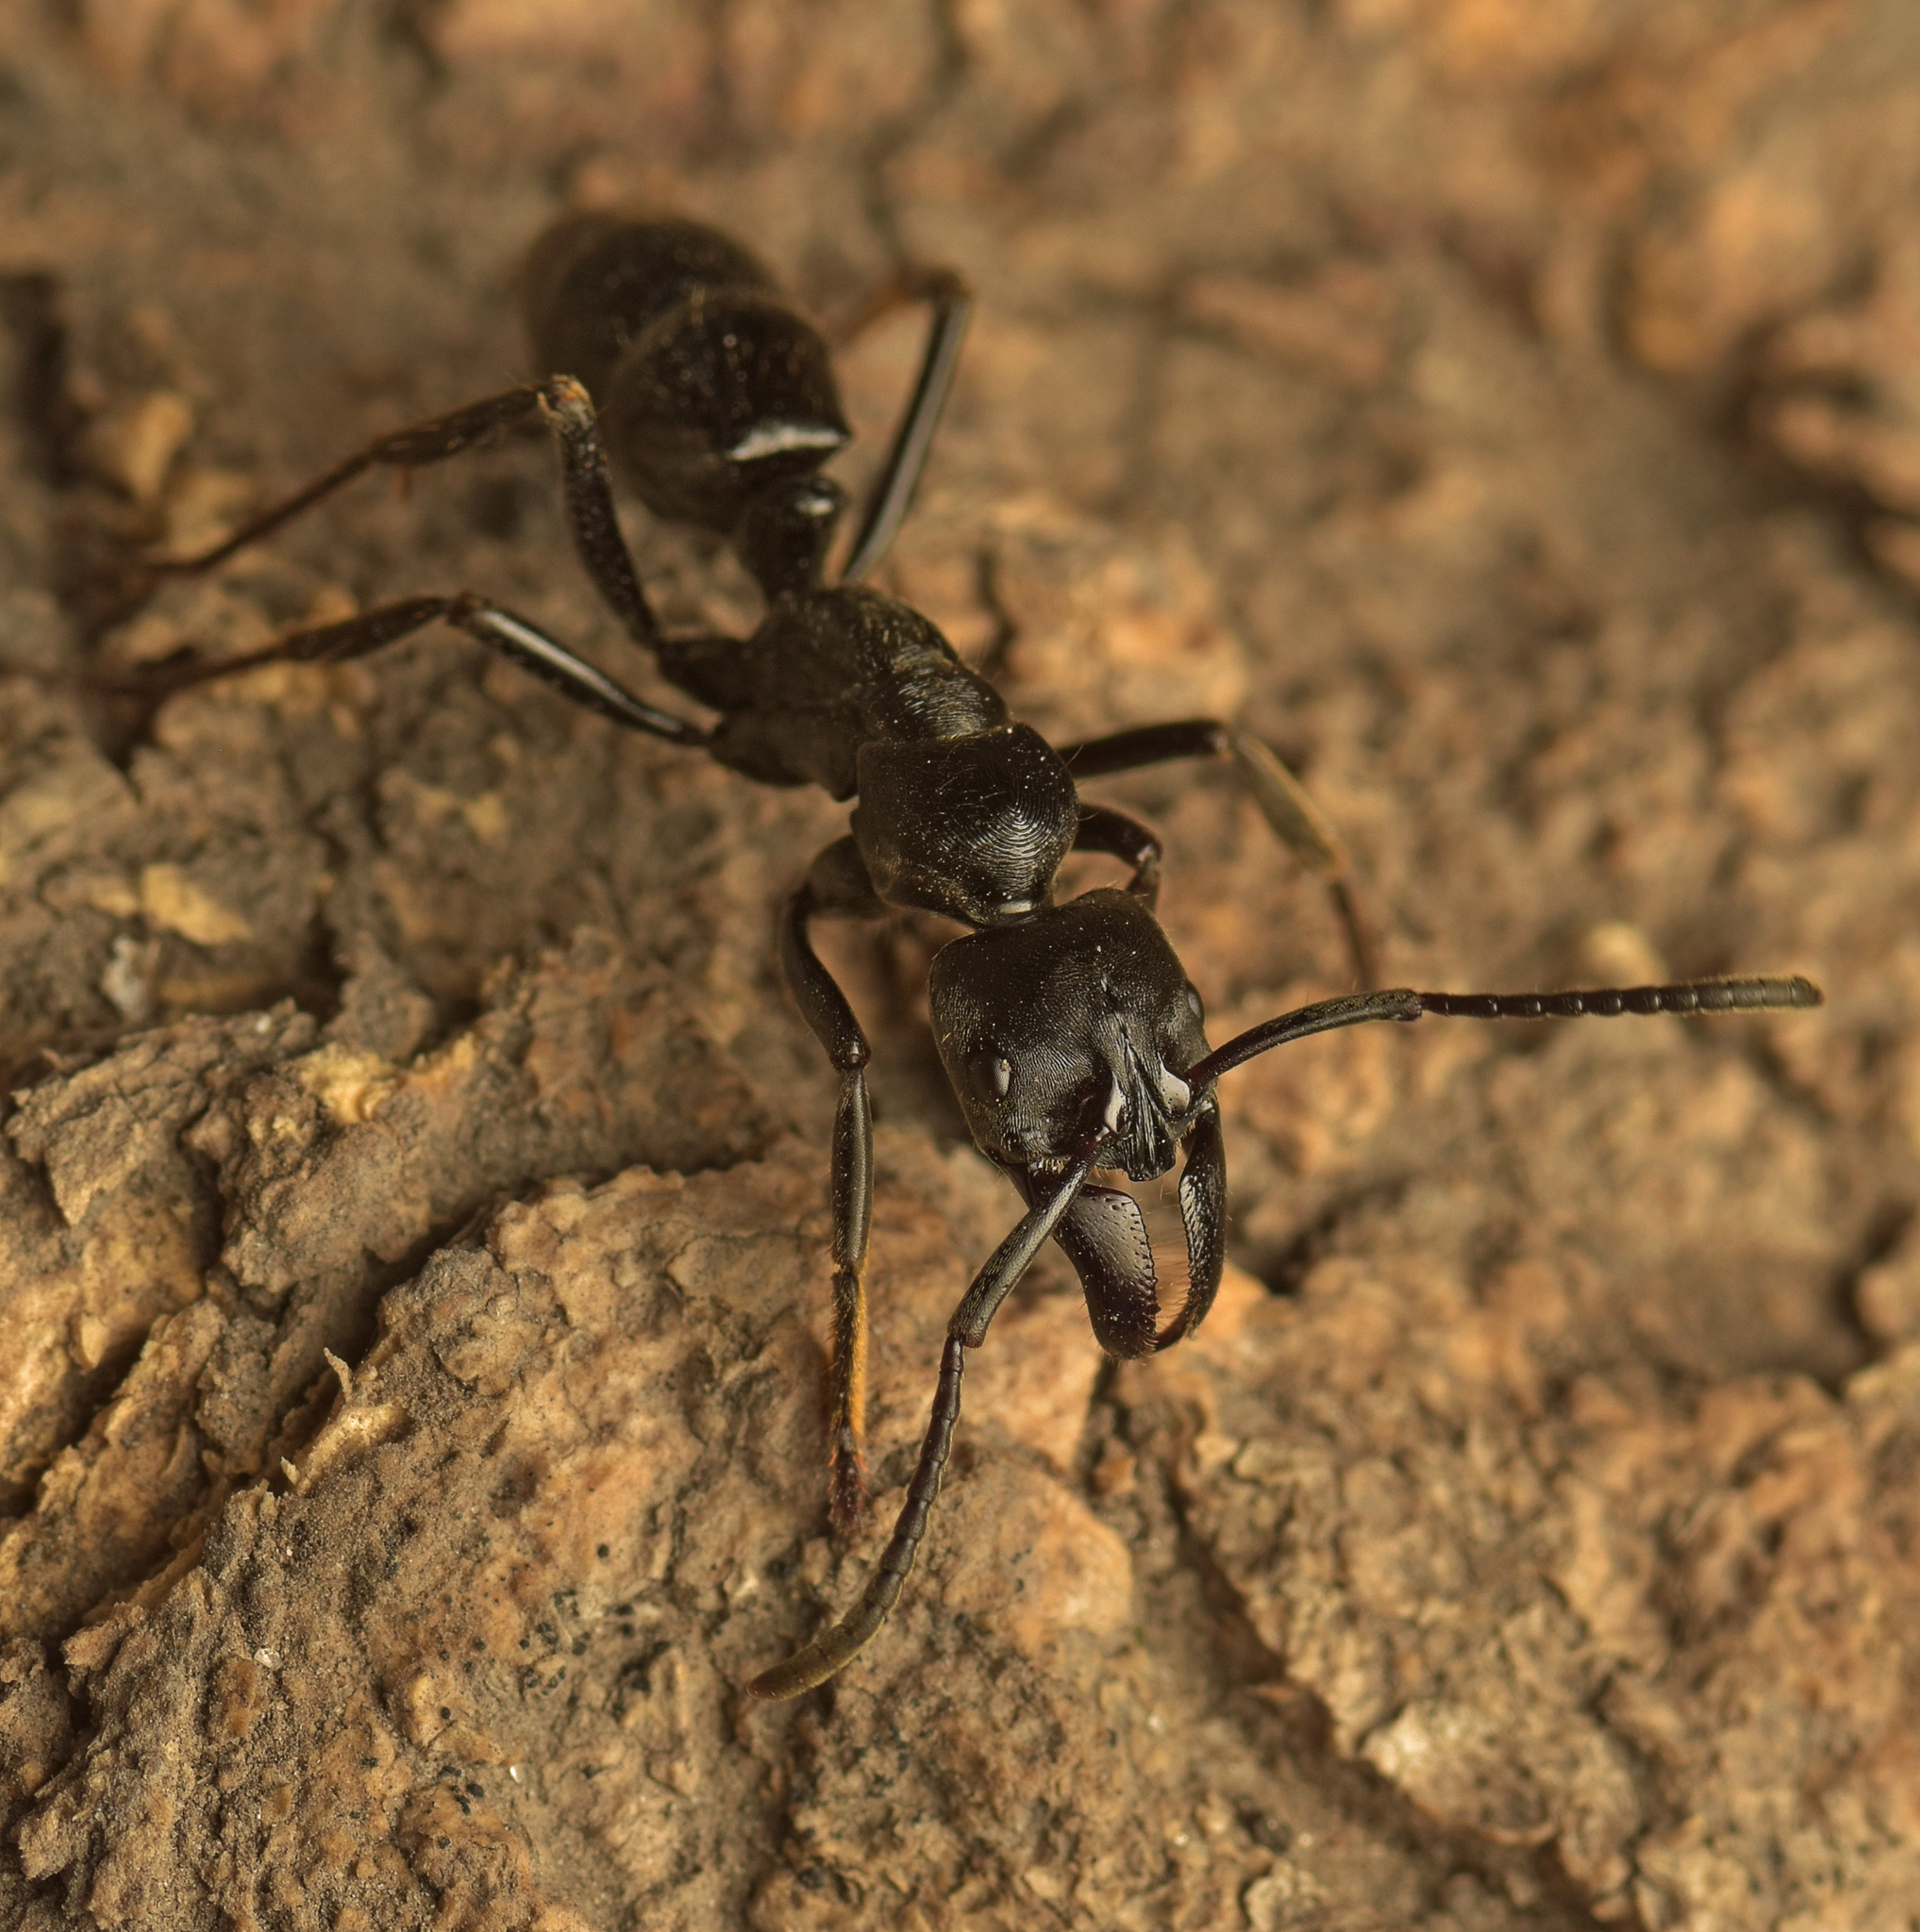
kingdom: Animalia
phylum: Arthropoda
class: Insecta
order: Hymenoptera
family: Formicidae
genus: Paltothyreus
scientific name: Paltothyreus tarsatus
